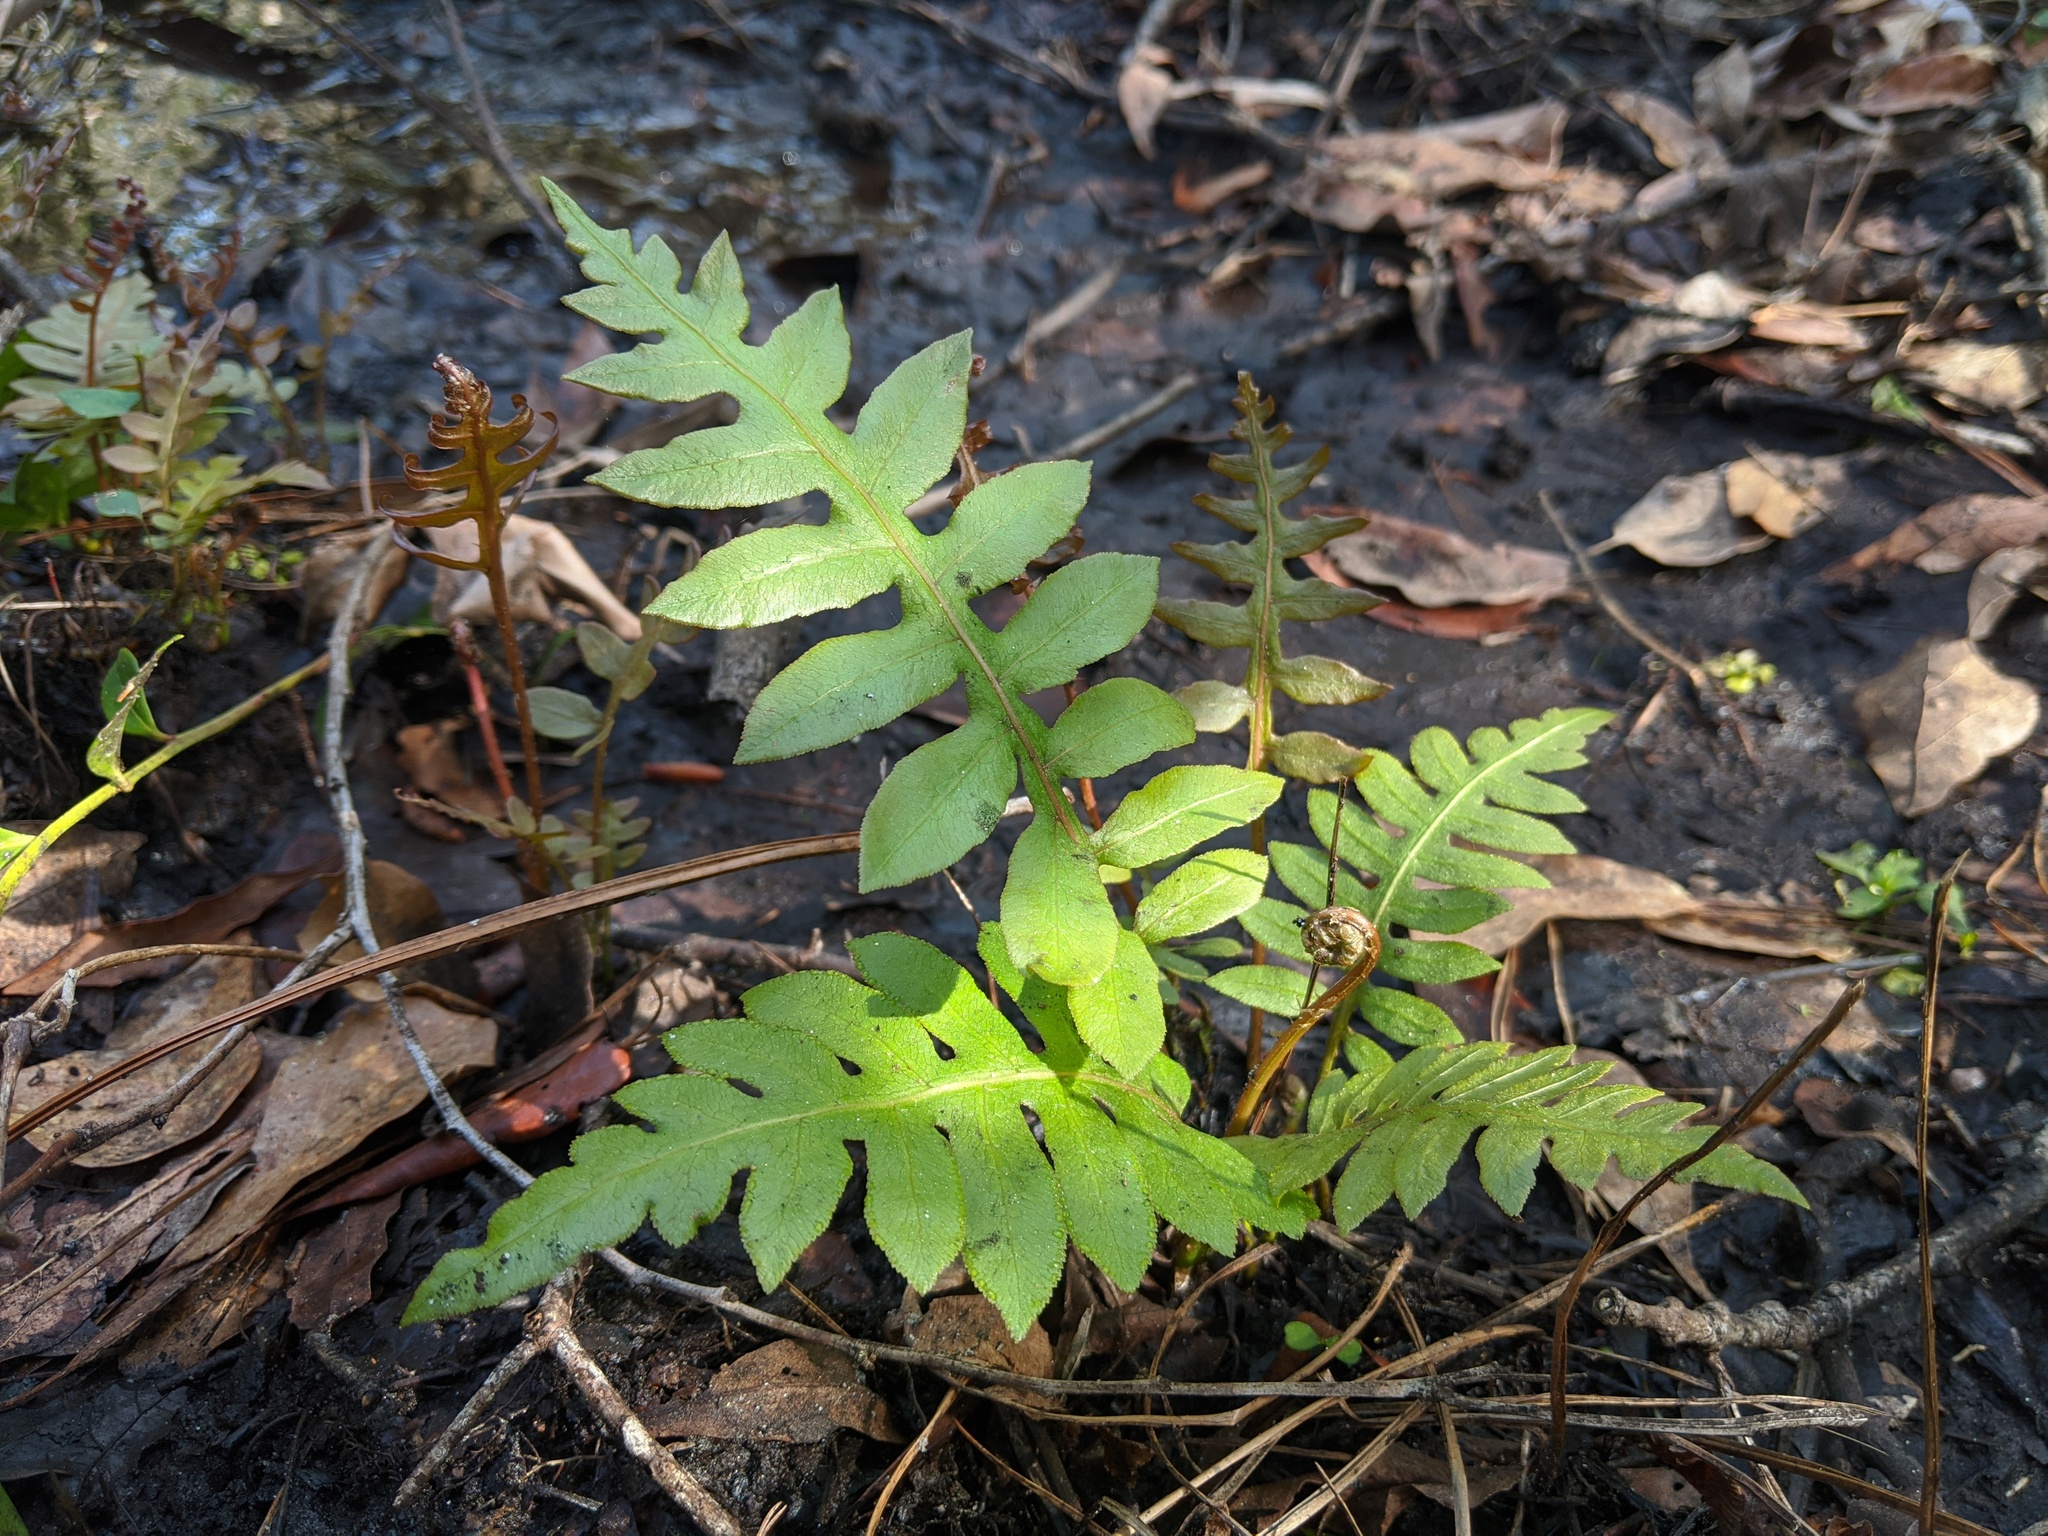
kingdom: Plantae
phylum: Tracheophyta
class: Polypodiopsida
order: Polypodiales
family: Blechnaceae
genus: Lorinseria
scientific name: Lorinseria areolata
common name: Dwarf chain fern
